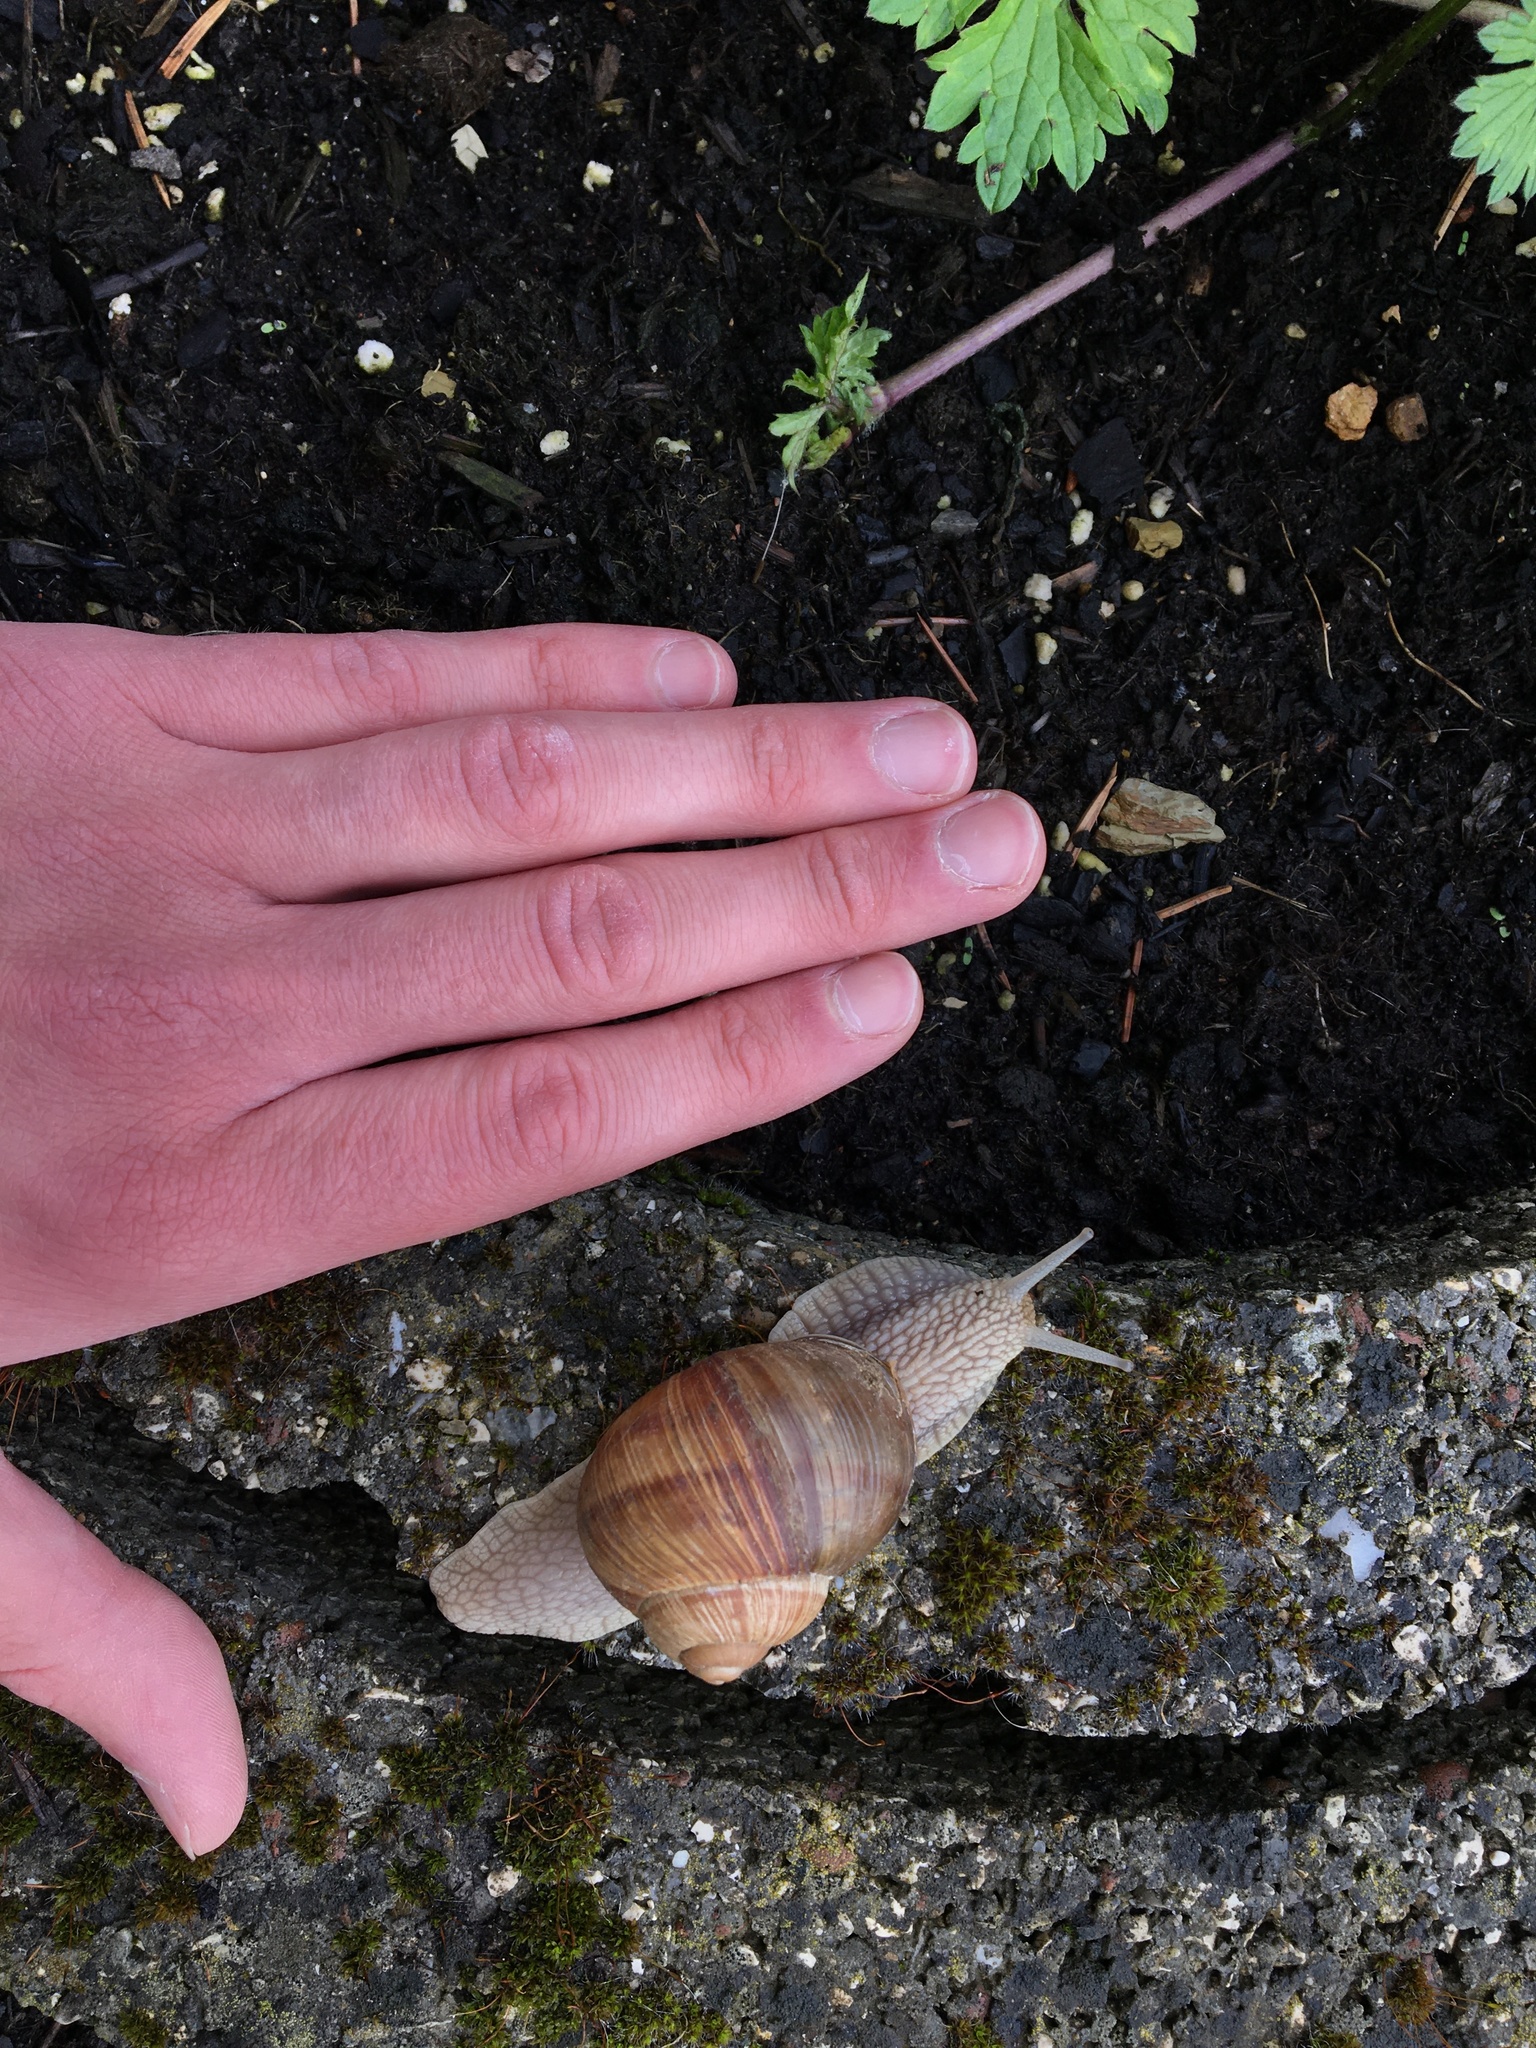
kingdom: Animalia
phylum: Mollusca
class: Gastropoda
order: Stylommatophora
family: Helicidae
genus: Helix
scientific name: Helix pomatia
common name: Roman snail
